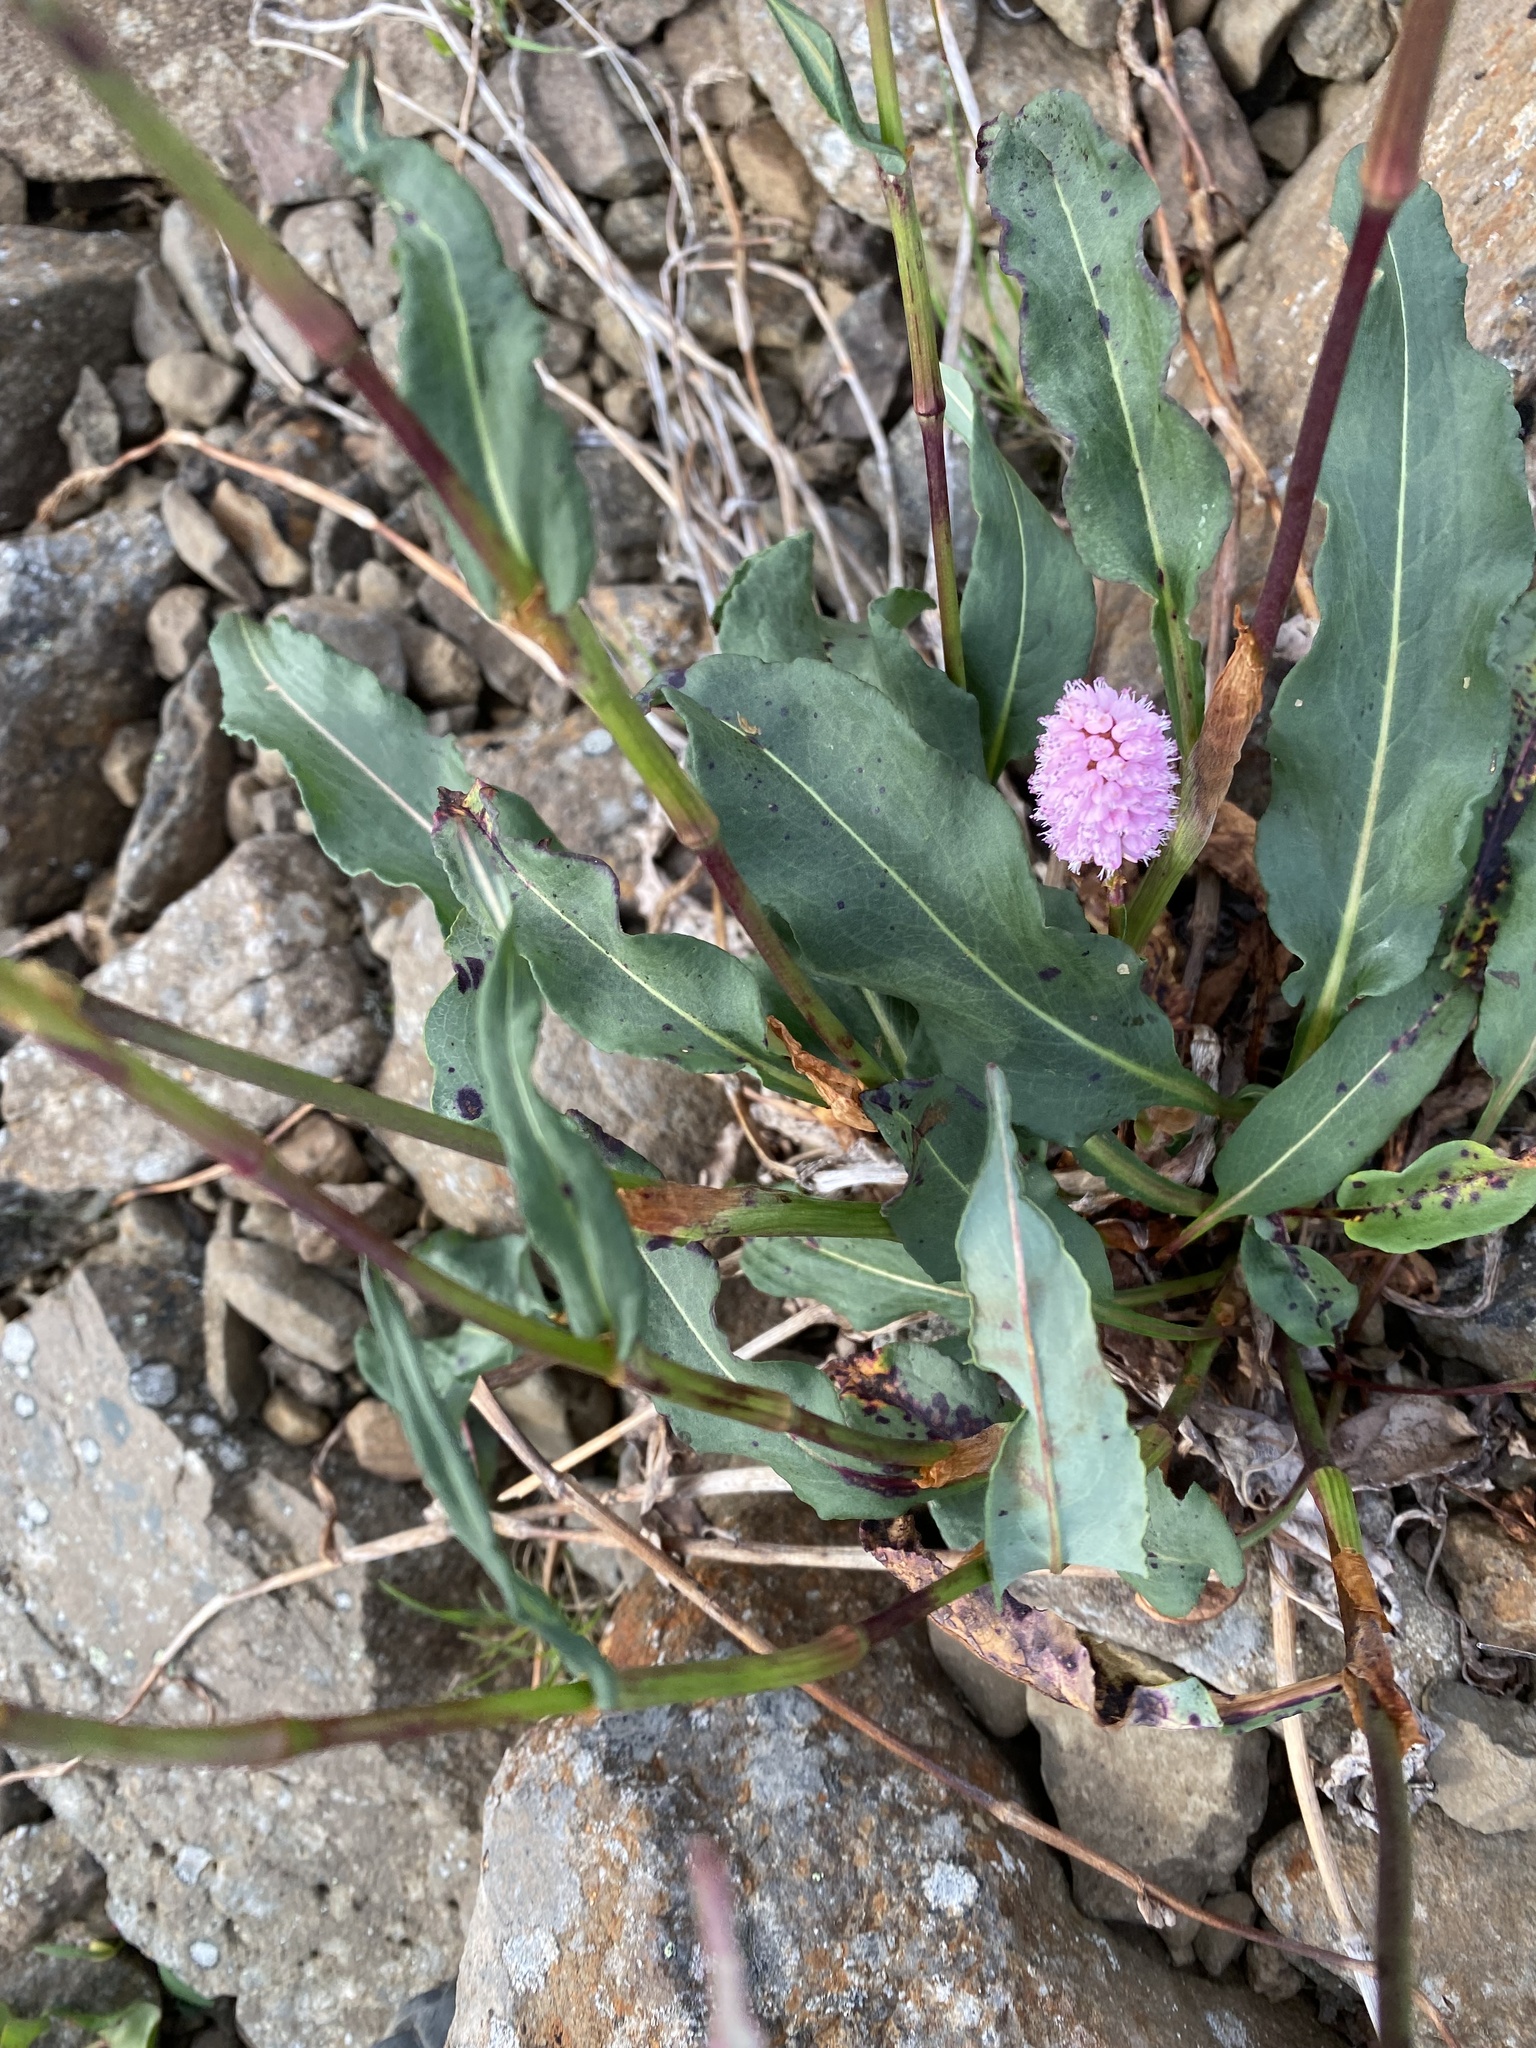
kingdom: Plantae
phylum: Tracheophyta
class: Magnoliopsida
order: Caryophyllales
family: Polygonaceae
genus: Bistorta
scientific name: Bistorta plumosa
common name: Meadow bistort
